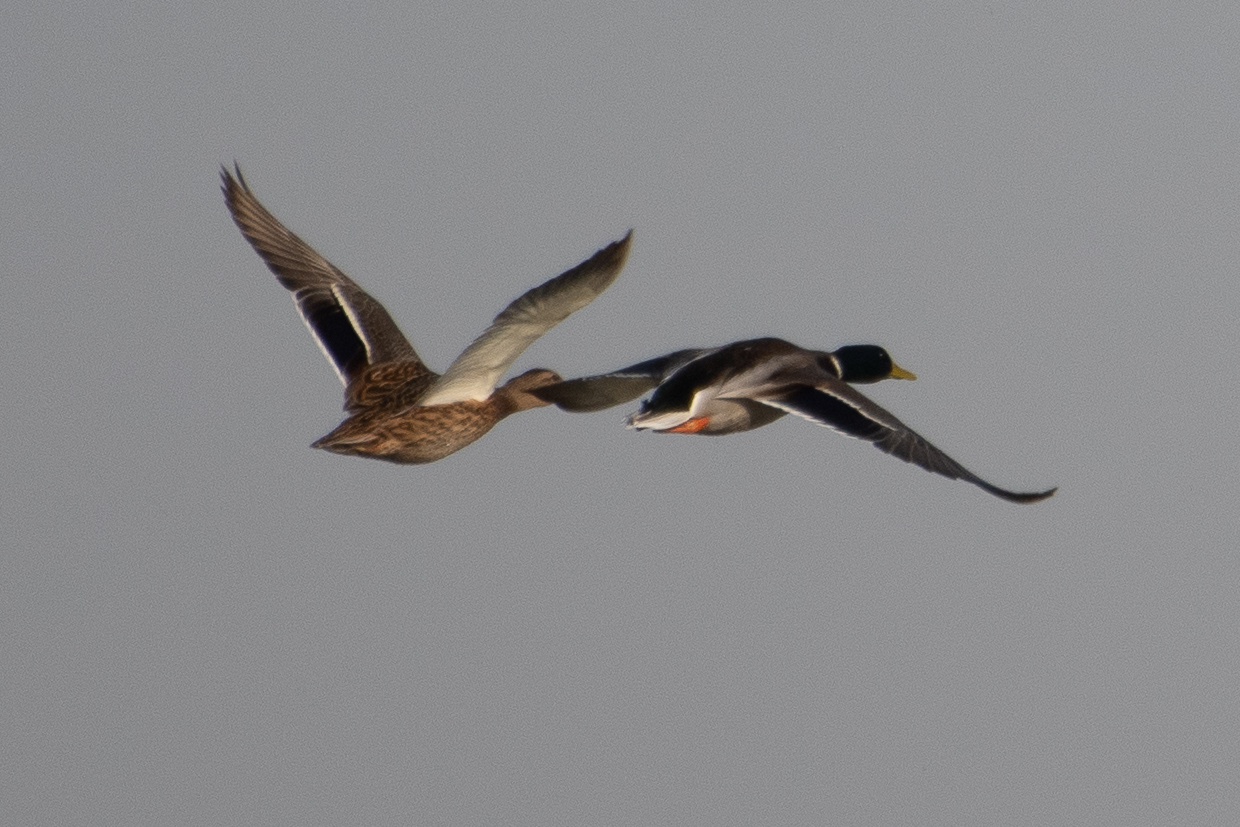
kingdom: Animalia
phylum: Chordata
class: Aves
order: Anseriformes
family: Anatidae
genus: Anas
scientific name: Anas platyrhynchos
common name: Mallard
